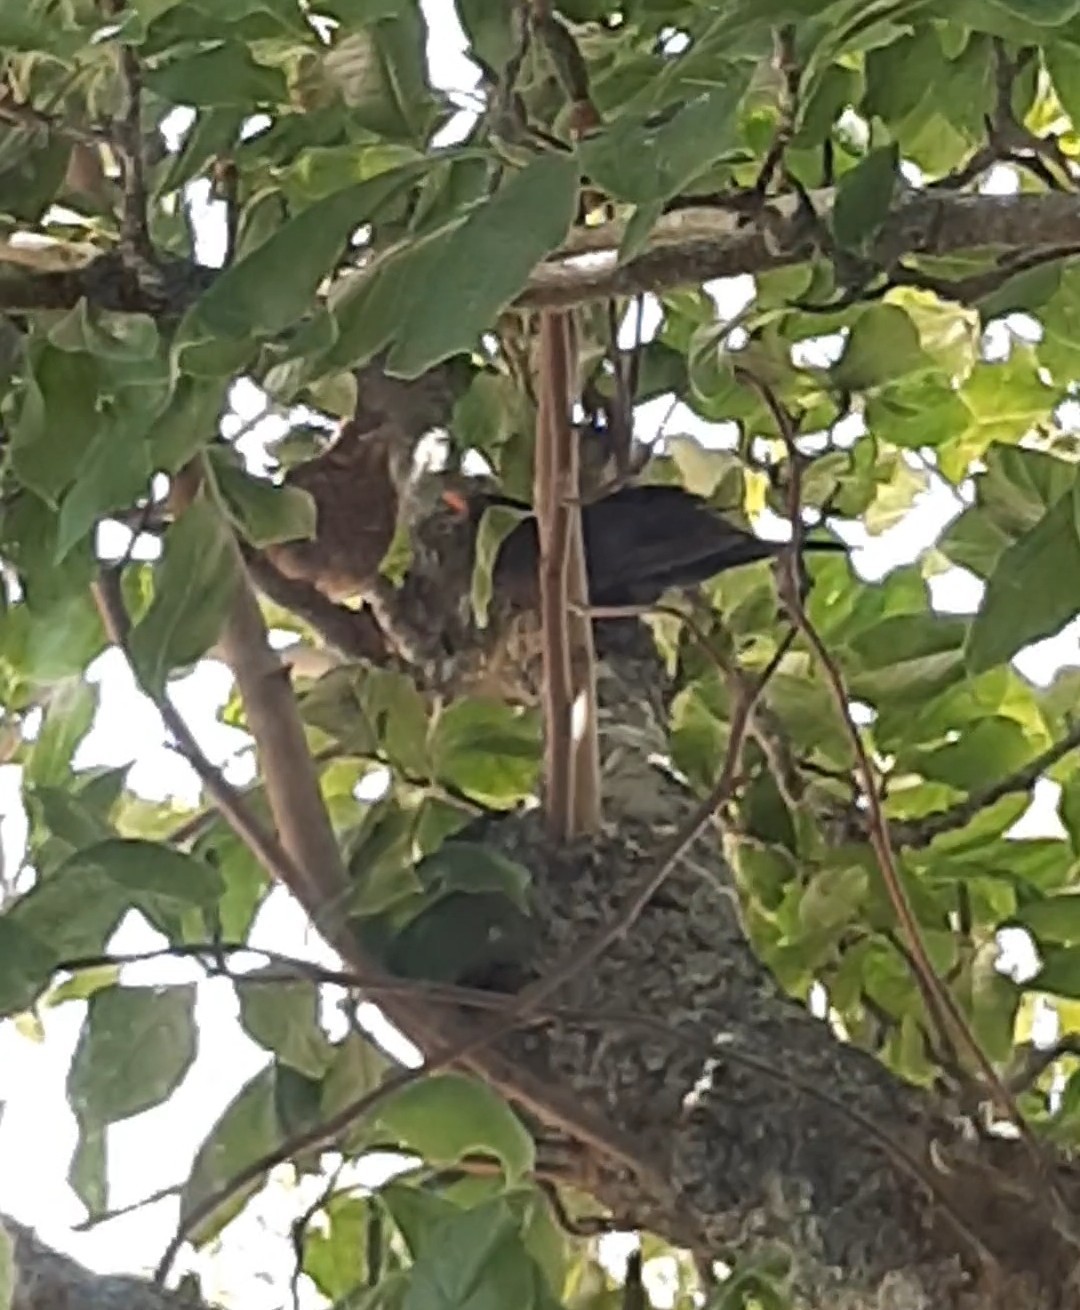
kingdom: Animalia
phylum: Chordata
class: Aves
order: Passeriformes
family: Turdidae
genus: Turdus
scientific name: Turdus merula
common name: Common blackbird
